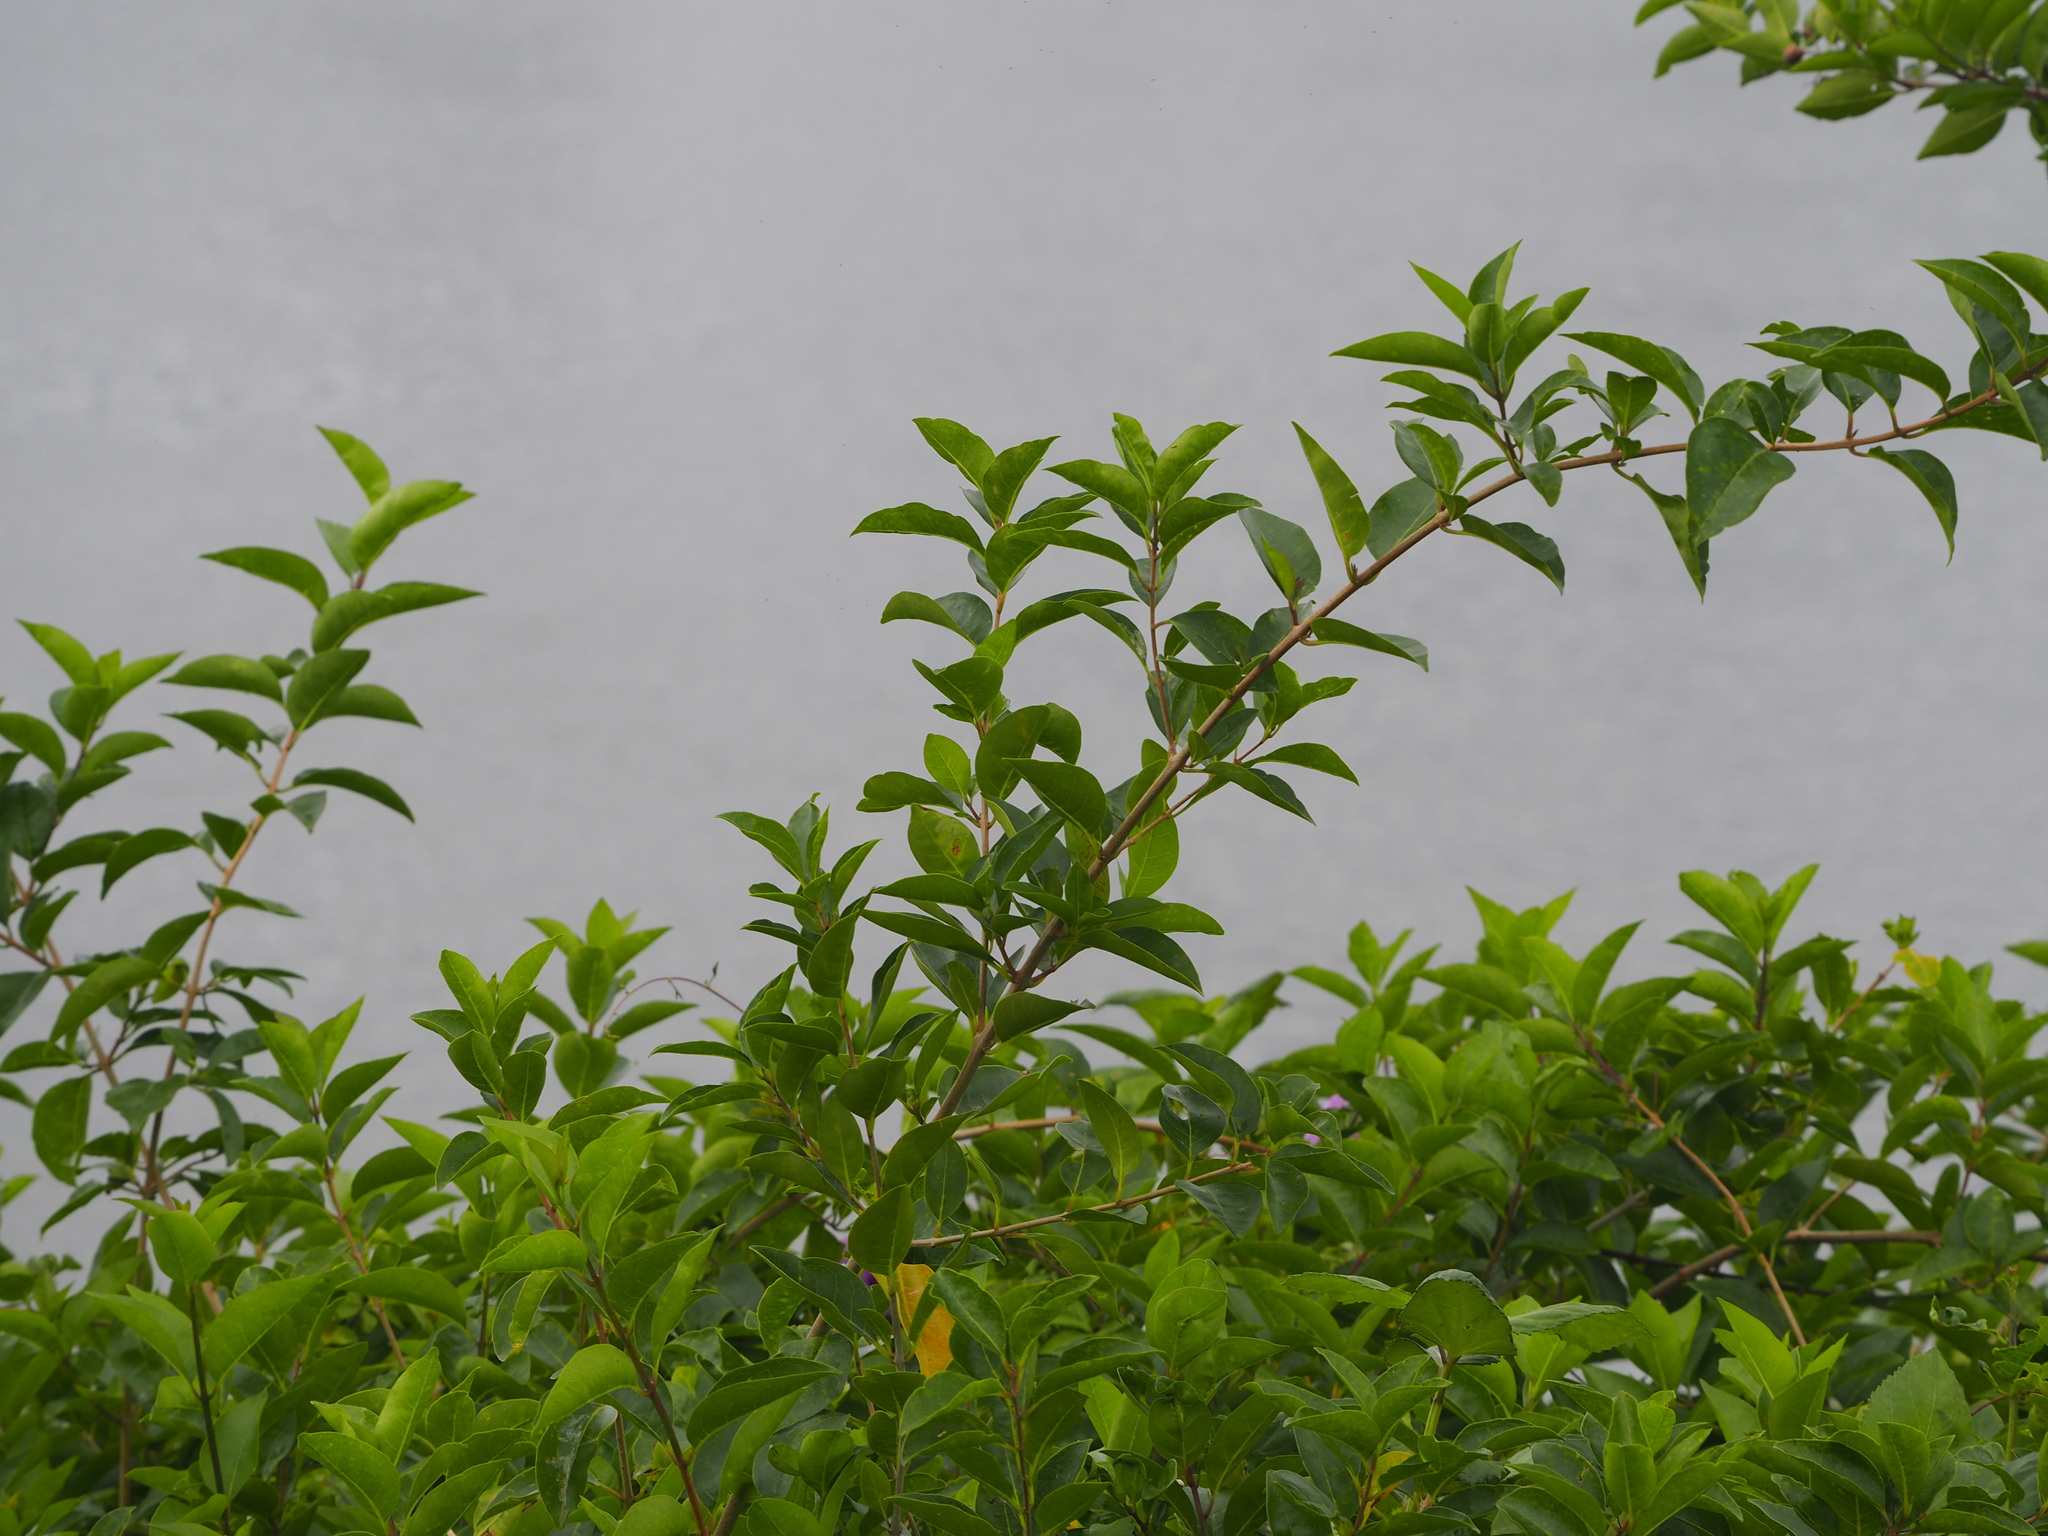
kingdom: Plantae
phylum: Tracheophyta
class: Magnoliopsida
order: Lamiales
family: Lamiaceae
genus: Volkameria
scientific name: Volkameria inermis
